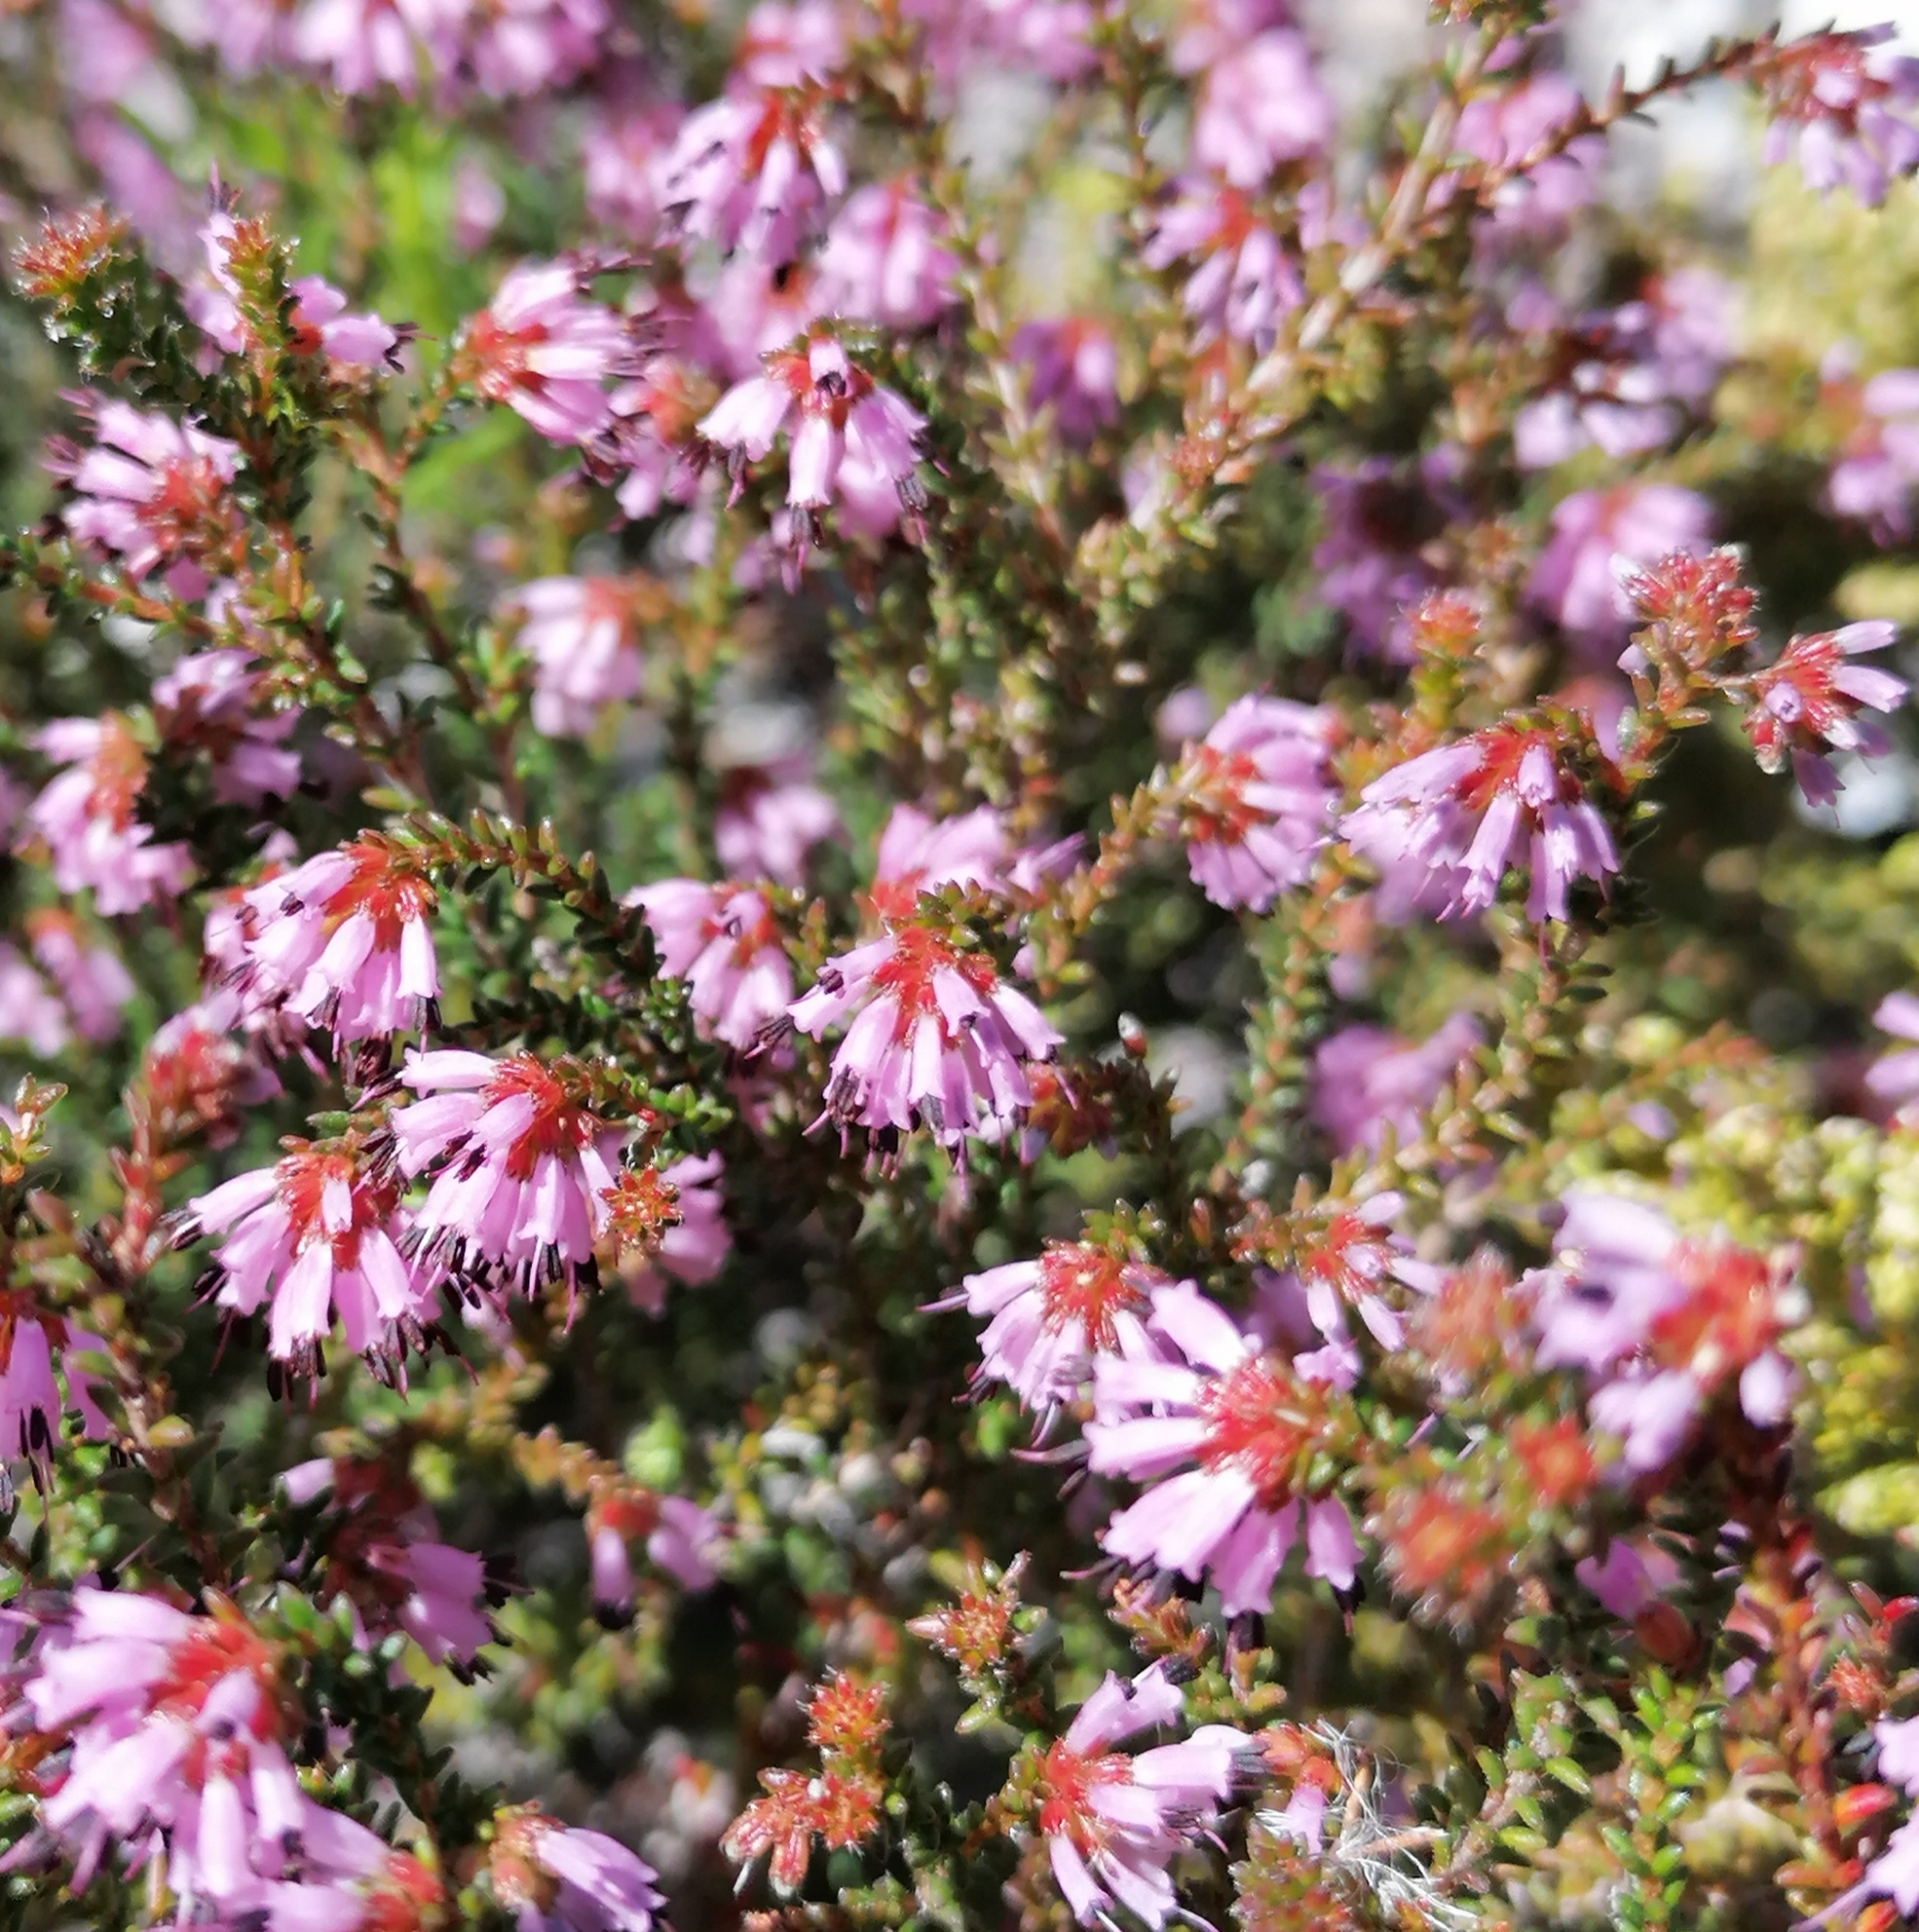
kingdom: Plantae
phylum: Tracheophyta
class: Magnoliopsida
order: Ericales
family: Ericaceae
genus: Erica
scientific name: Erica glabella
